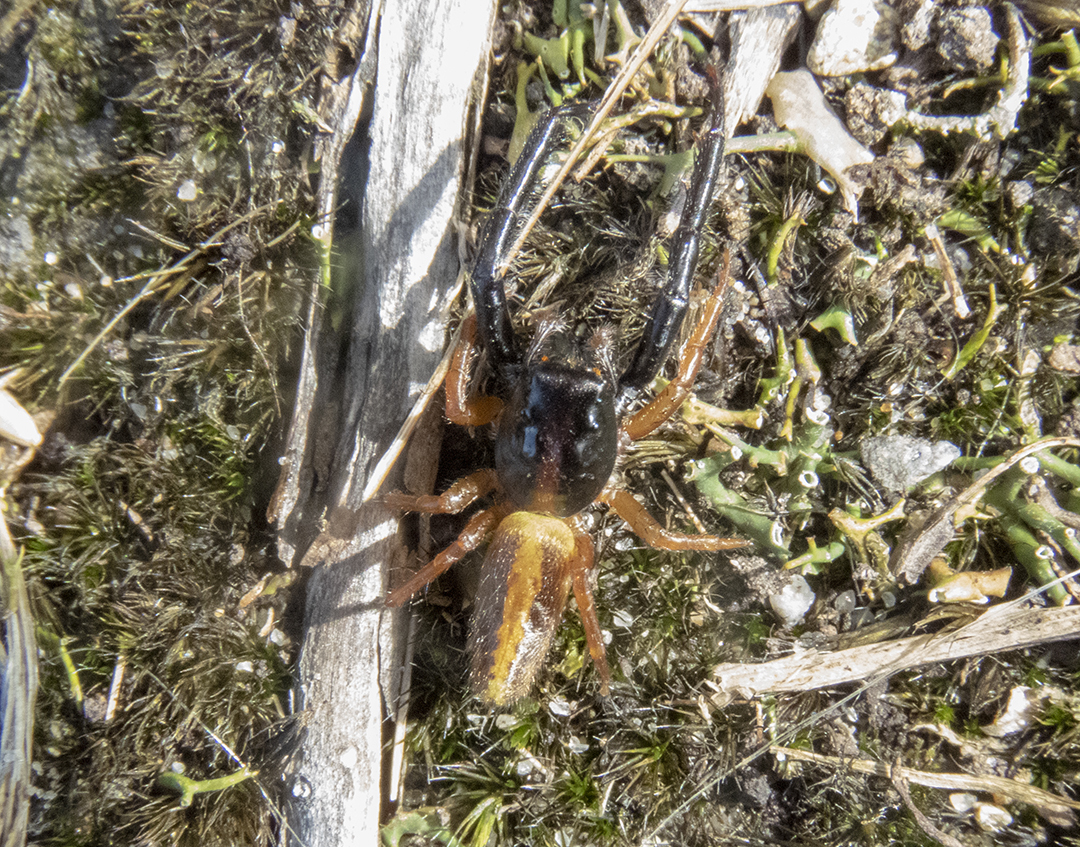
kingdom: Animalia
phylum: Arthropoda
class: Arachnida
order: Araneae
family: Salticidae
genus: Trite
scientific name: Trite planiceps
